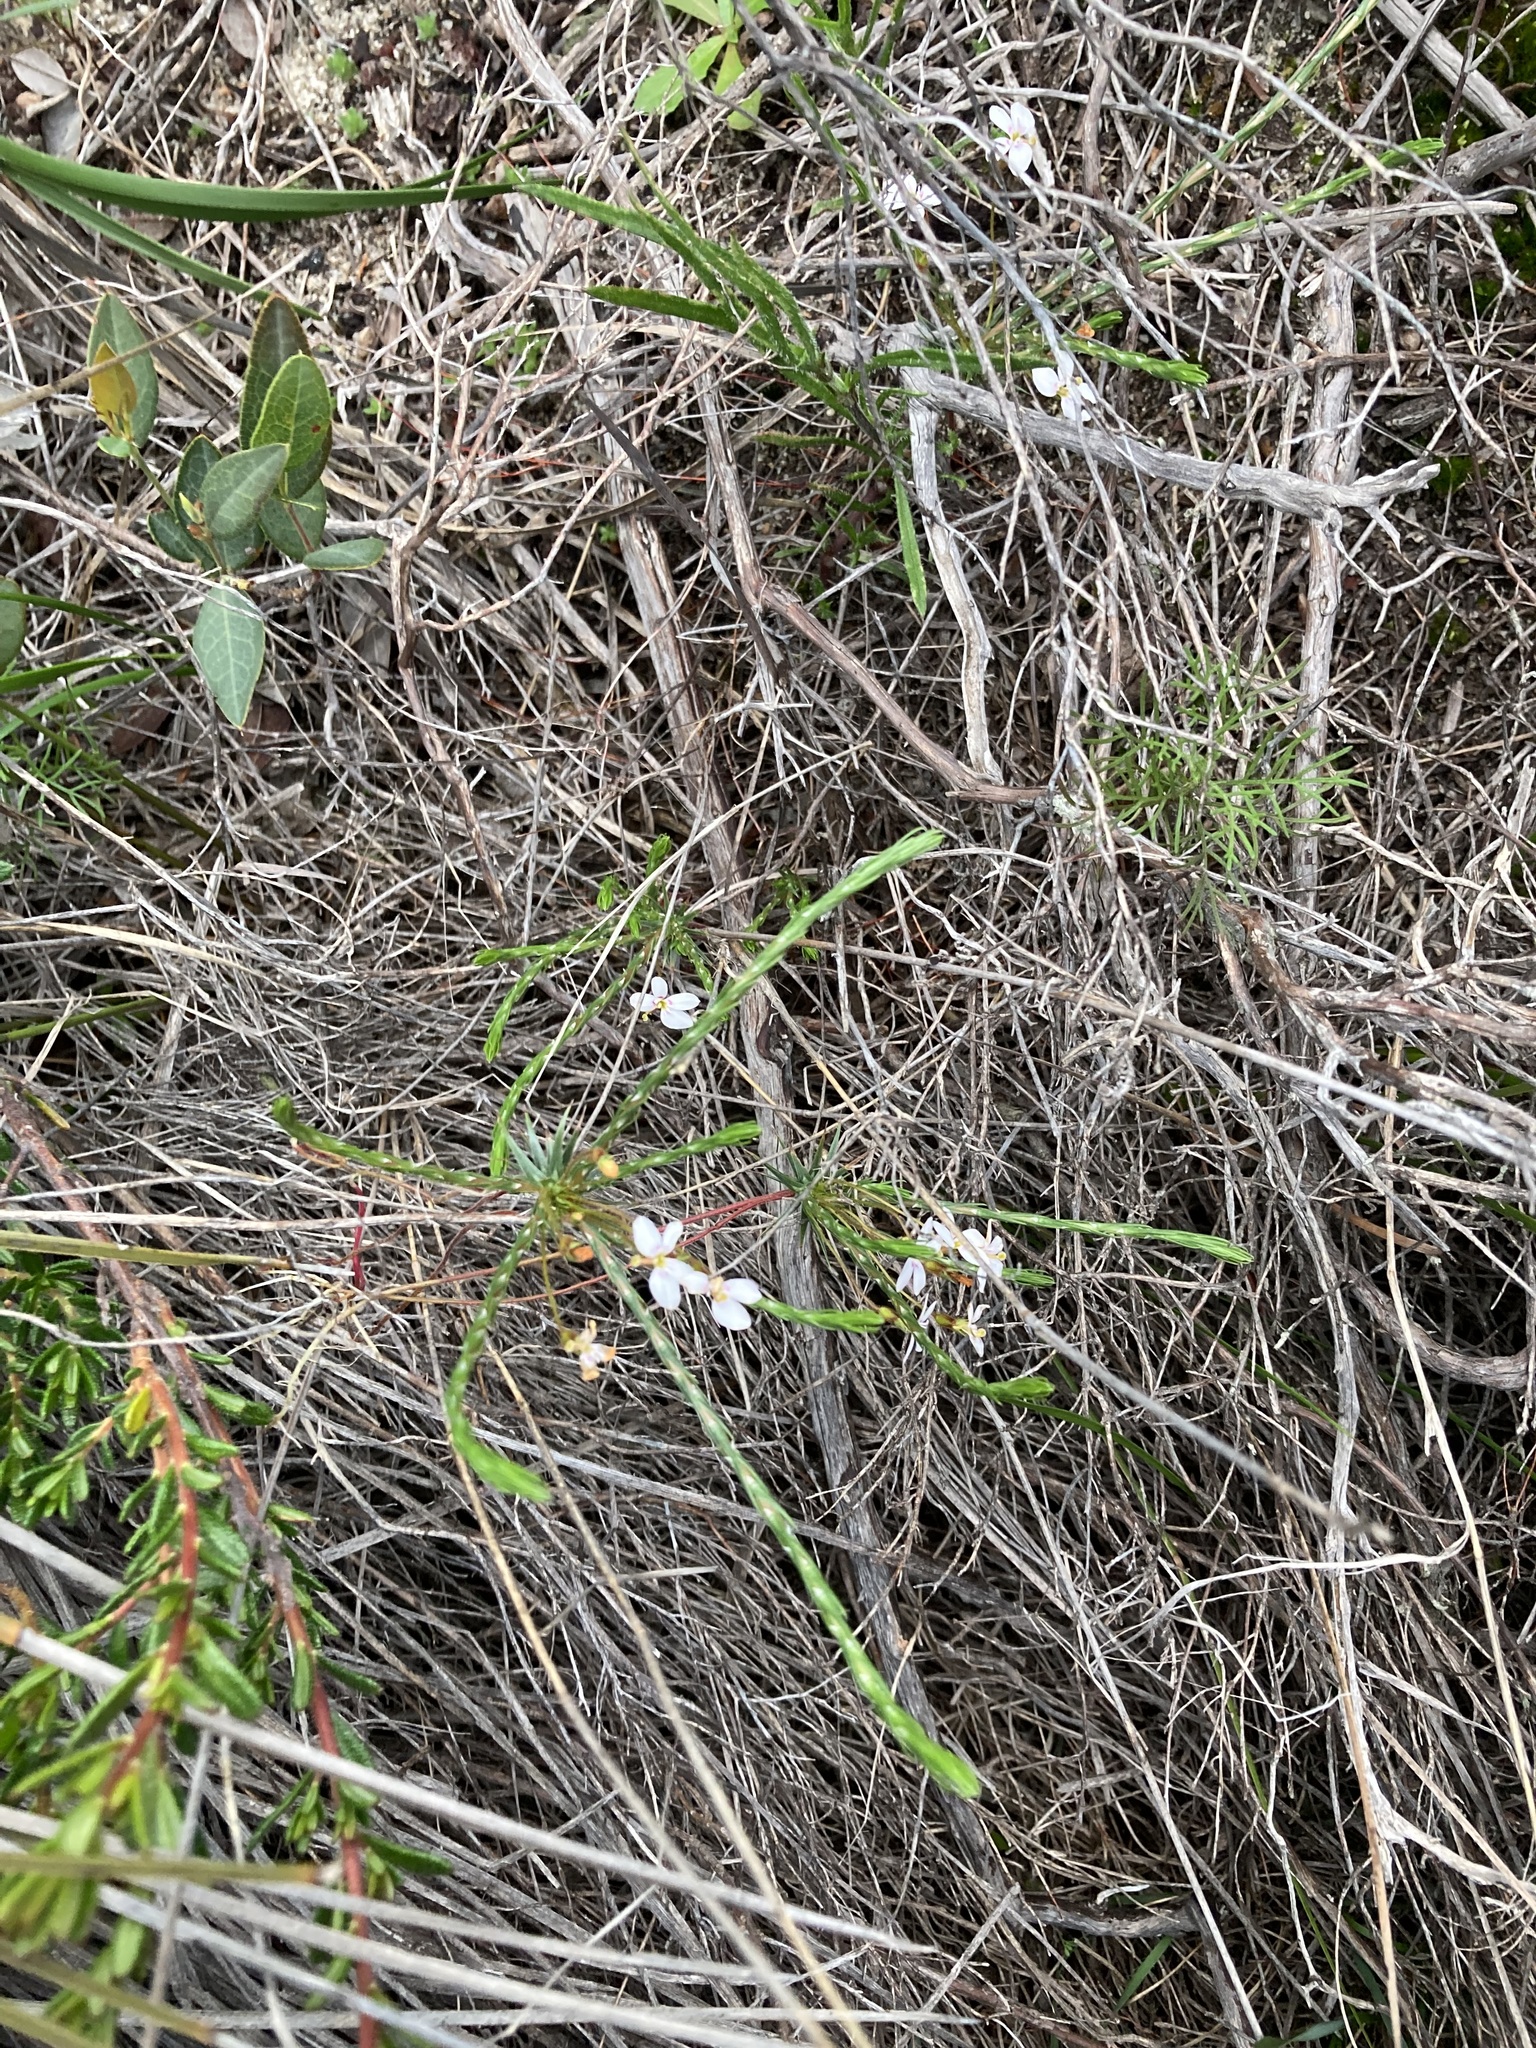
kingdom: Plantae
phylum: Tracheophyta
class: Magnoliopsida
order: Asterales
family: Stylidiaceae
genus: Stylidium
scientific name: Stylidium flagellum
